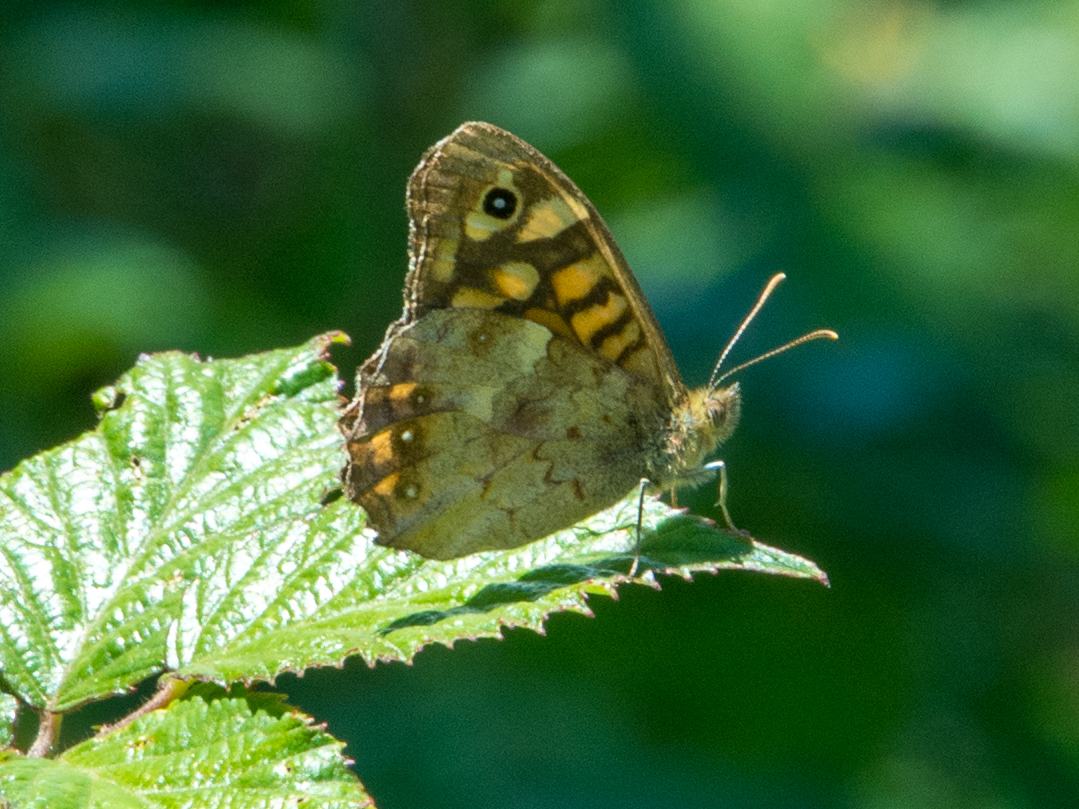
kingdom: Animalia
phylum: Arthropoda
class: Insecta
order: Lepidoptera
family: Nymphalidae
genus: Pararge
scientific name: Pararge aegeria
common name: Speckled wood
